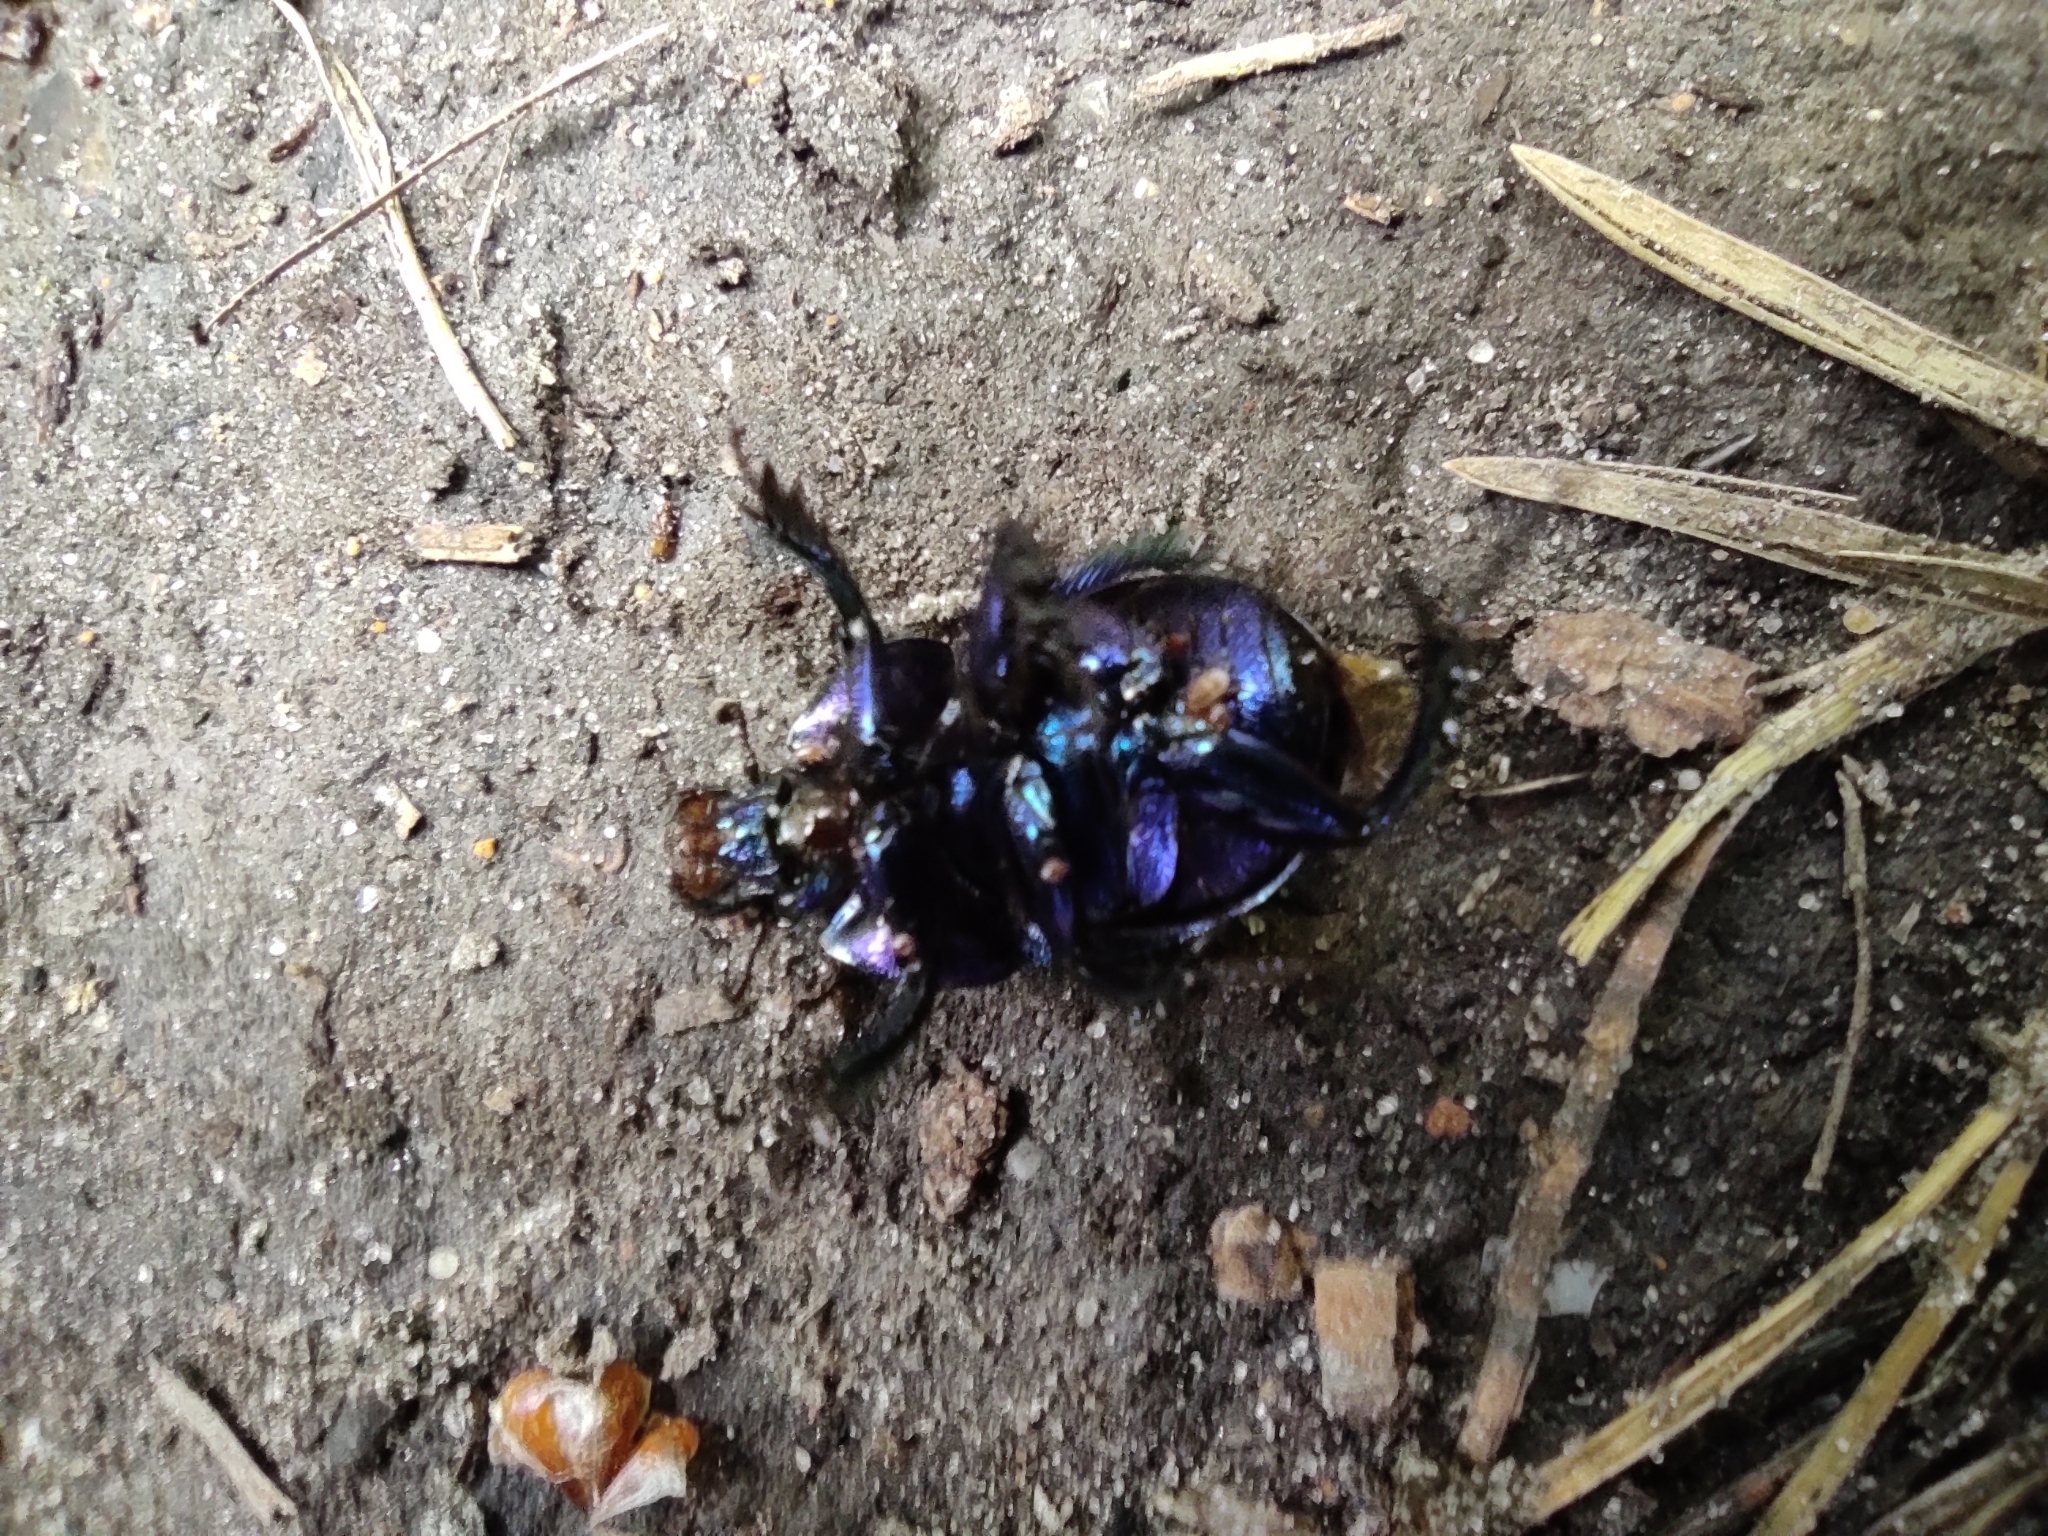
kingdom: Animalia
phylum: Arthropoda
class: Insecta
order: Coleoptera
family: Geotrupidae
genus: Anoplotrupes
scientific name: Anoplotrupes stercorosus
